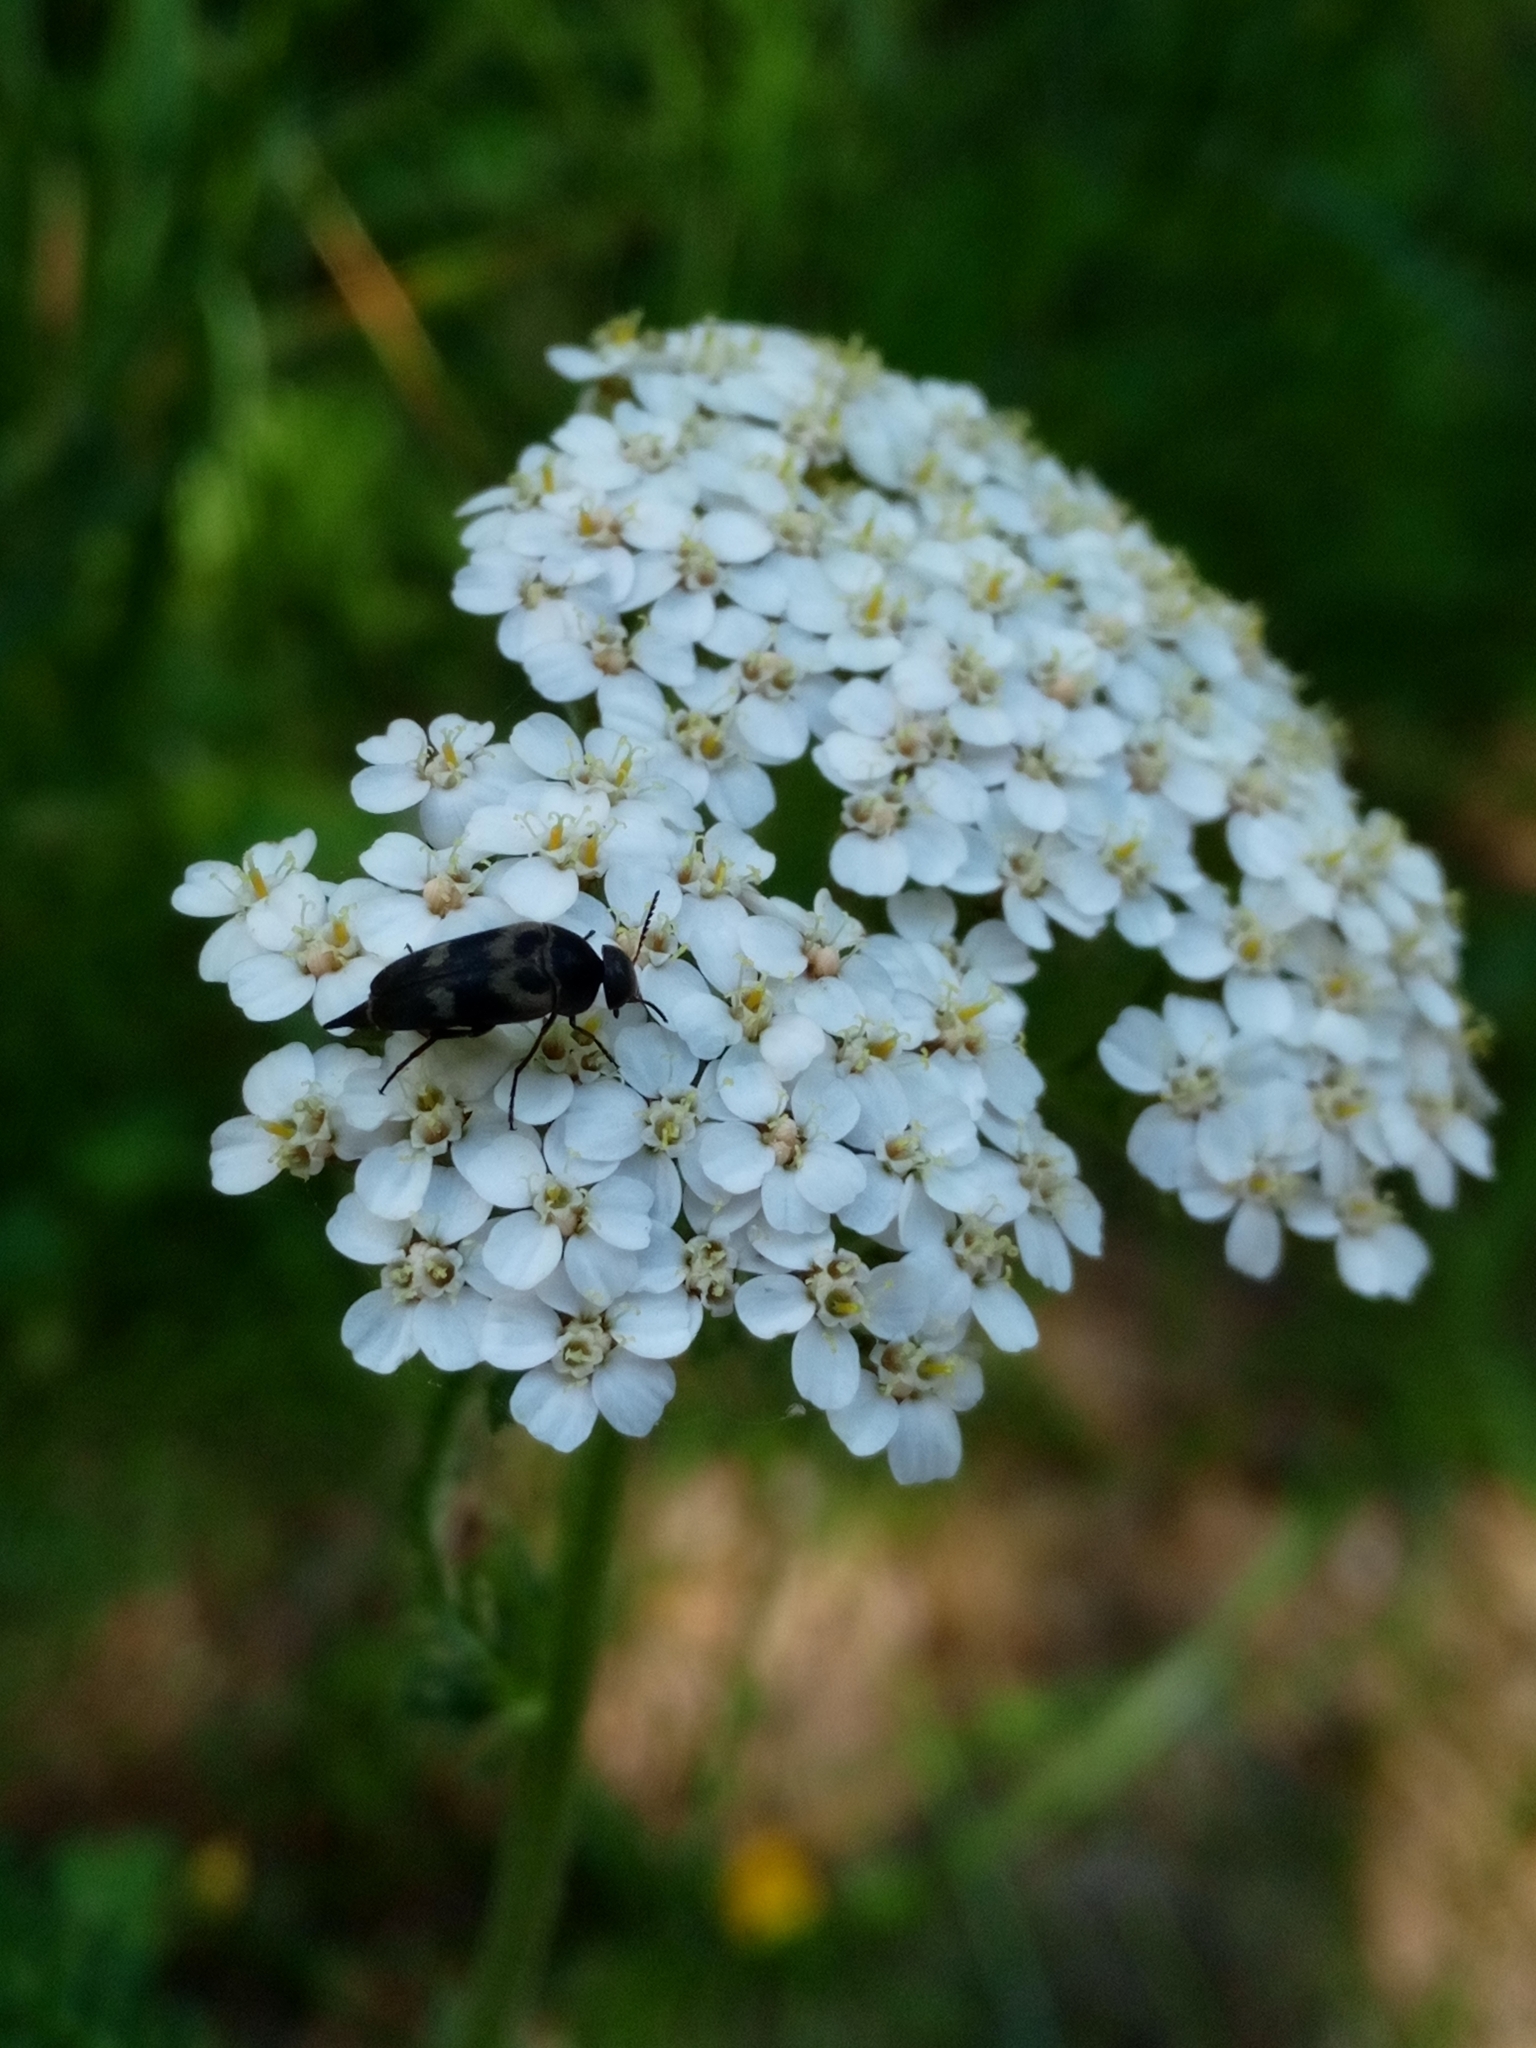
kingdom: Plantae
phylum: Tracheophyta
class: Magnoliopsida
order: Asterales
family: Asteraceae
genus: Achillea
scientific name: Achillea millefolium
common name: Yarrow
